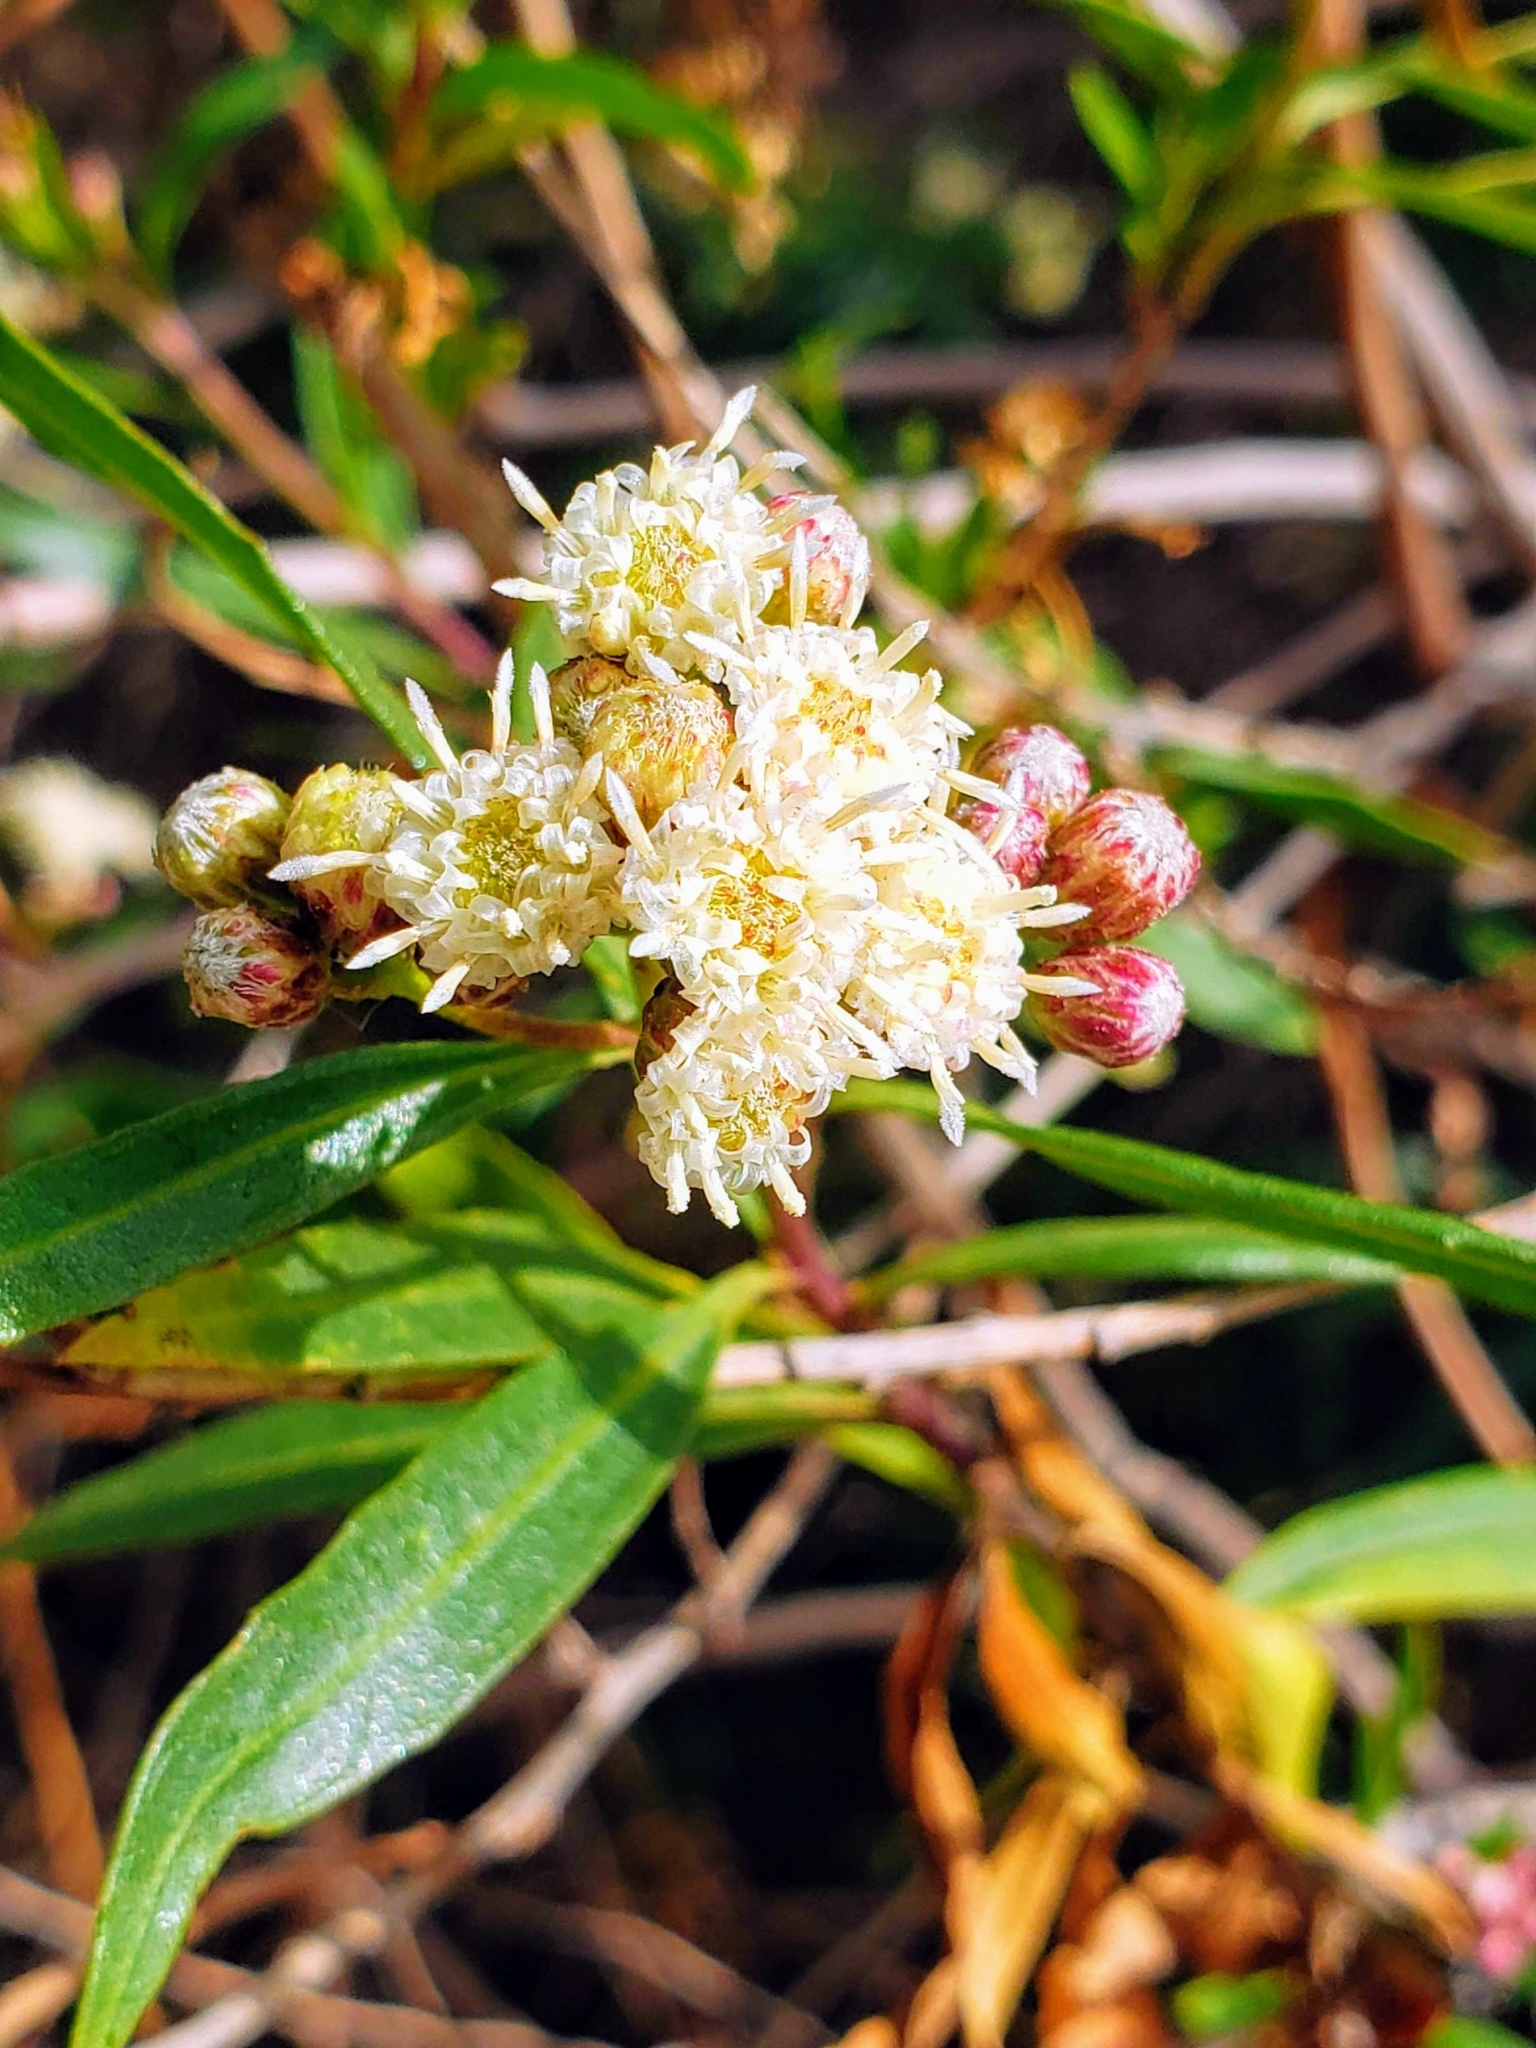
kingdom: Plantae
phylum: Tracheophyta
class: Magnoliopsida
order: Asterales
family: Asteraceae
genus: Baccharis
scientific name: Baccharis salicifolia
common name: Sticky baccharis
